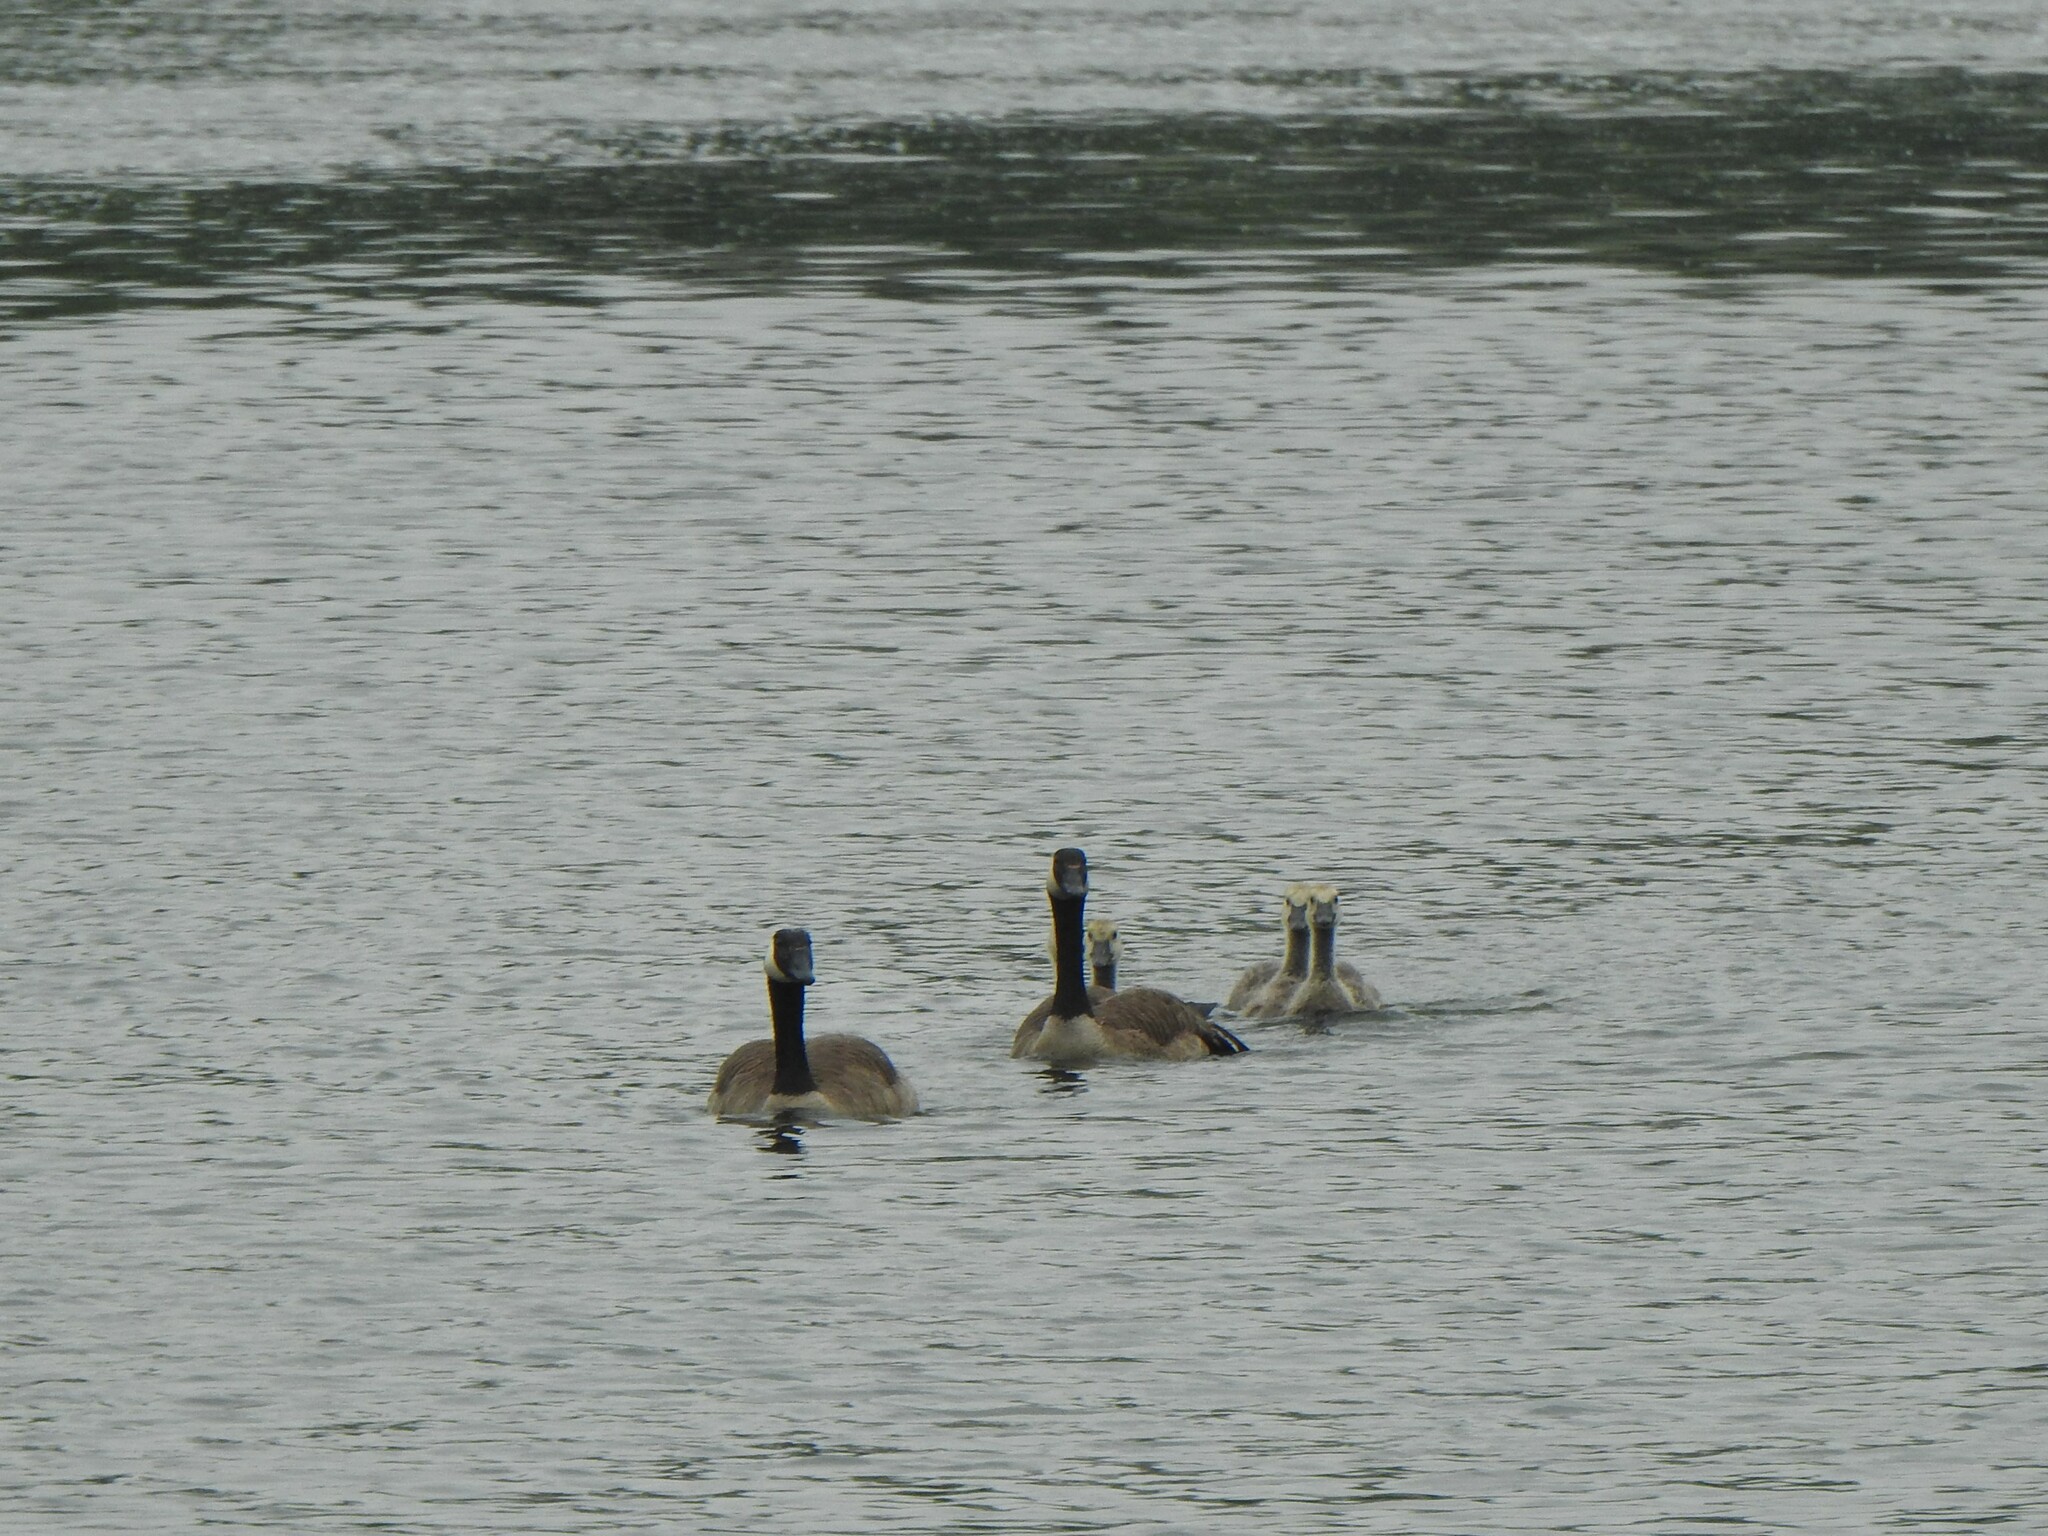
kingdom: Animalia
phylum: Chordata
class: Aves
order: Anseriformes
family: Anatidae
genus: Branta
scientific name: Branta canadensis
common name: Canada goose
